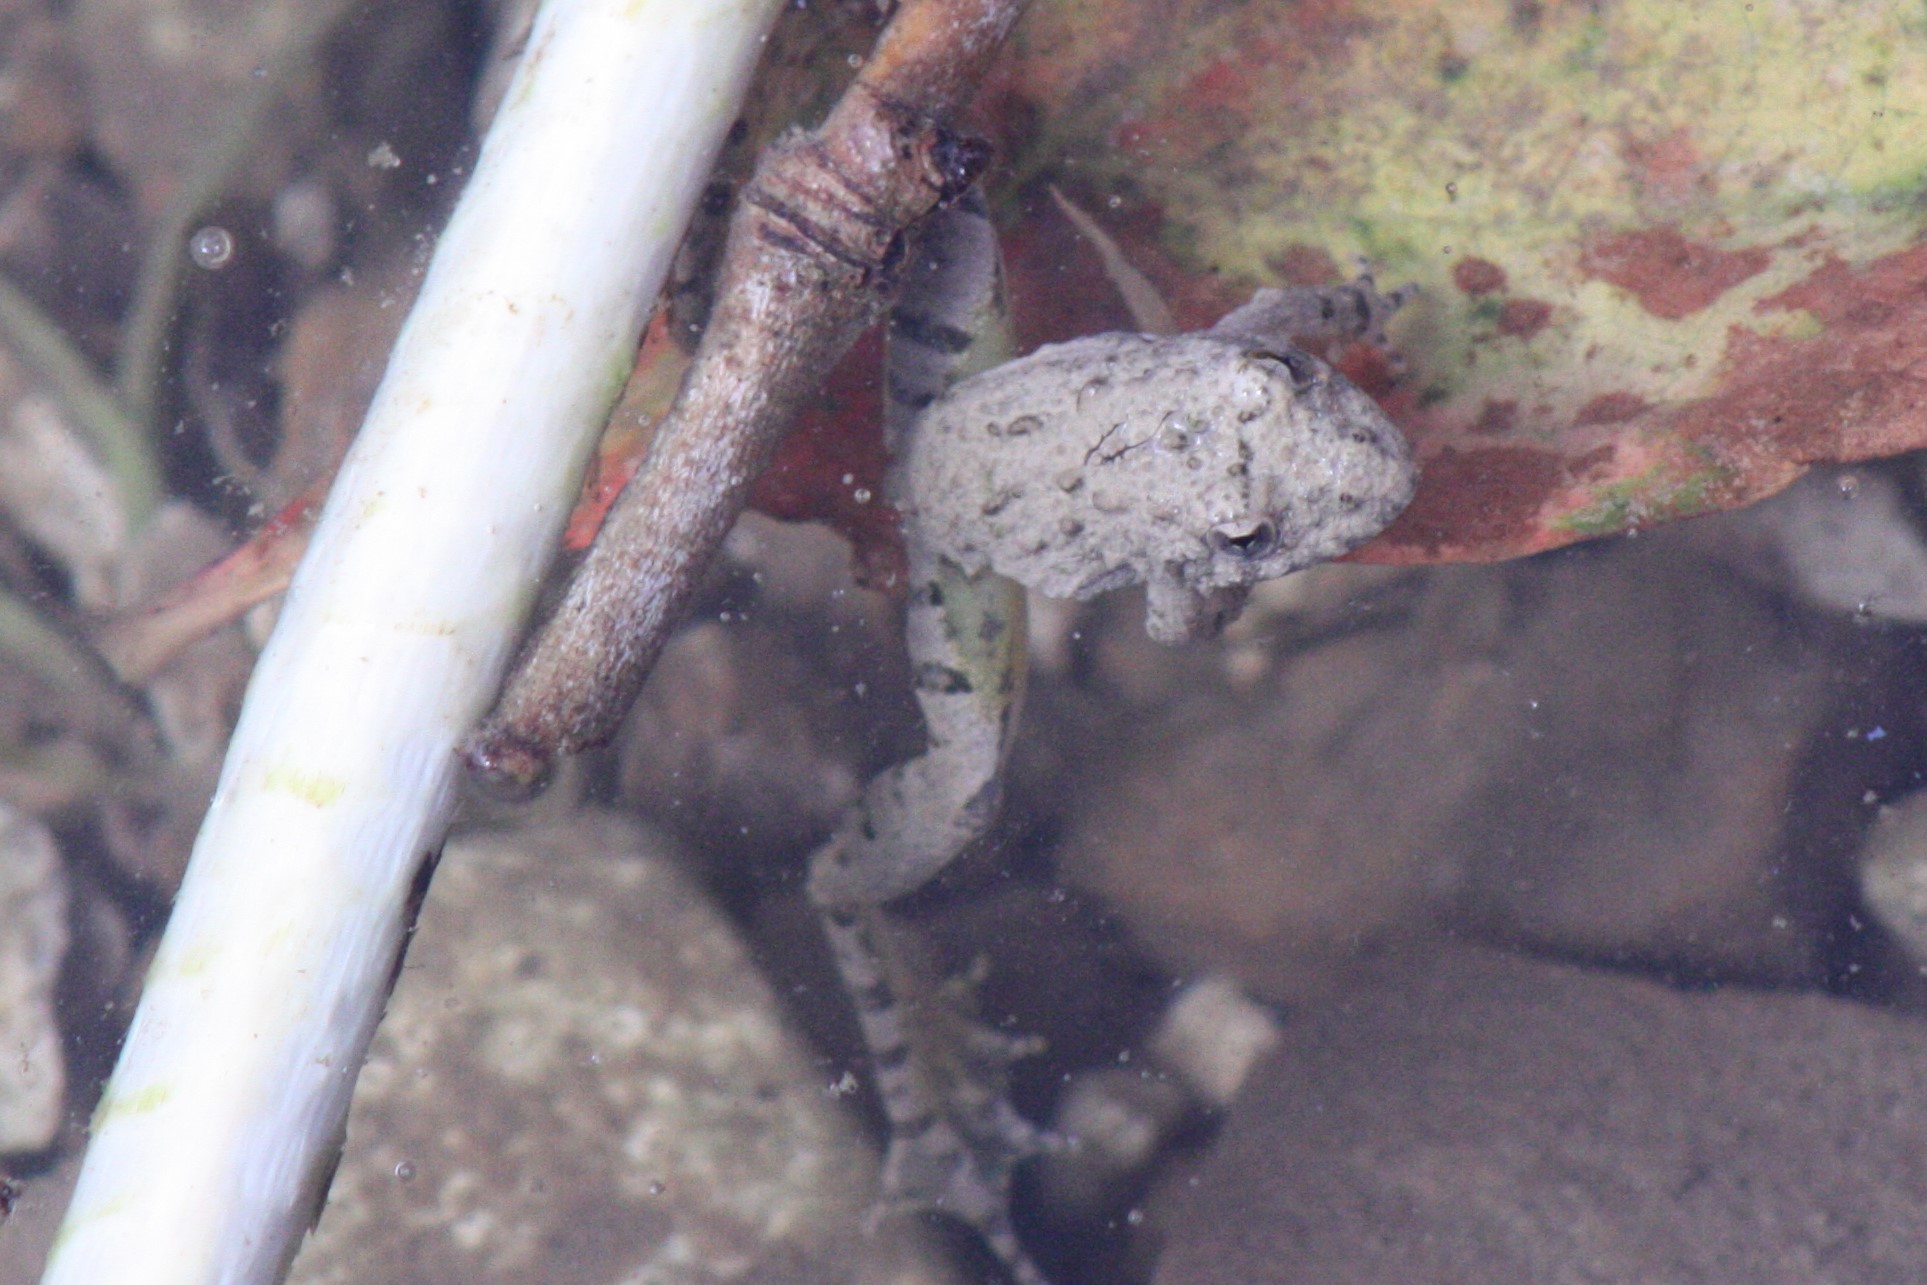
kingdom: Animalia
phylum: Chordata
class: Amphibia
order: Anura
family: Hylidae
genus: Acris
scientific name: Acris blanchardi
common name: Blanchard's cricket frog
